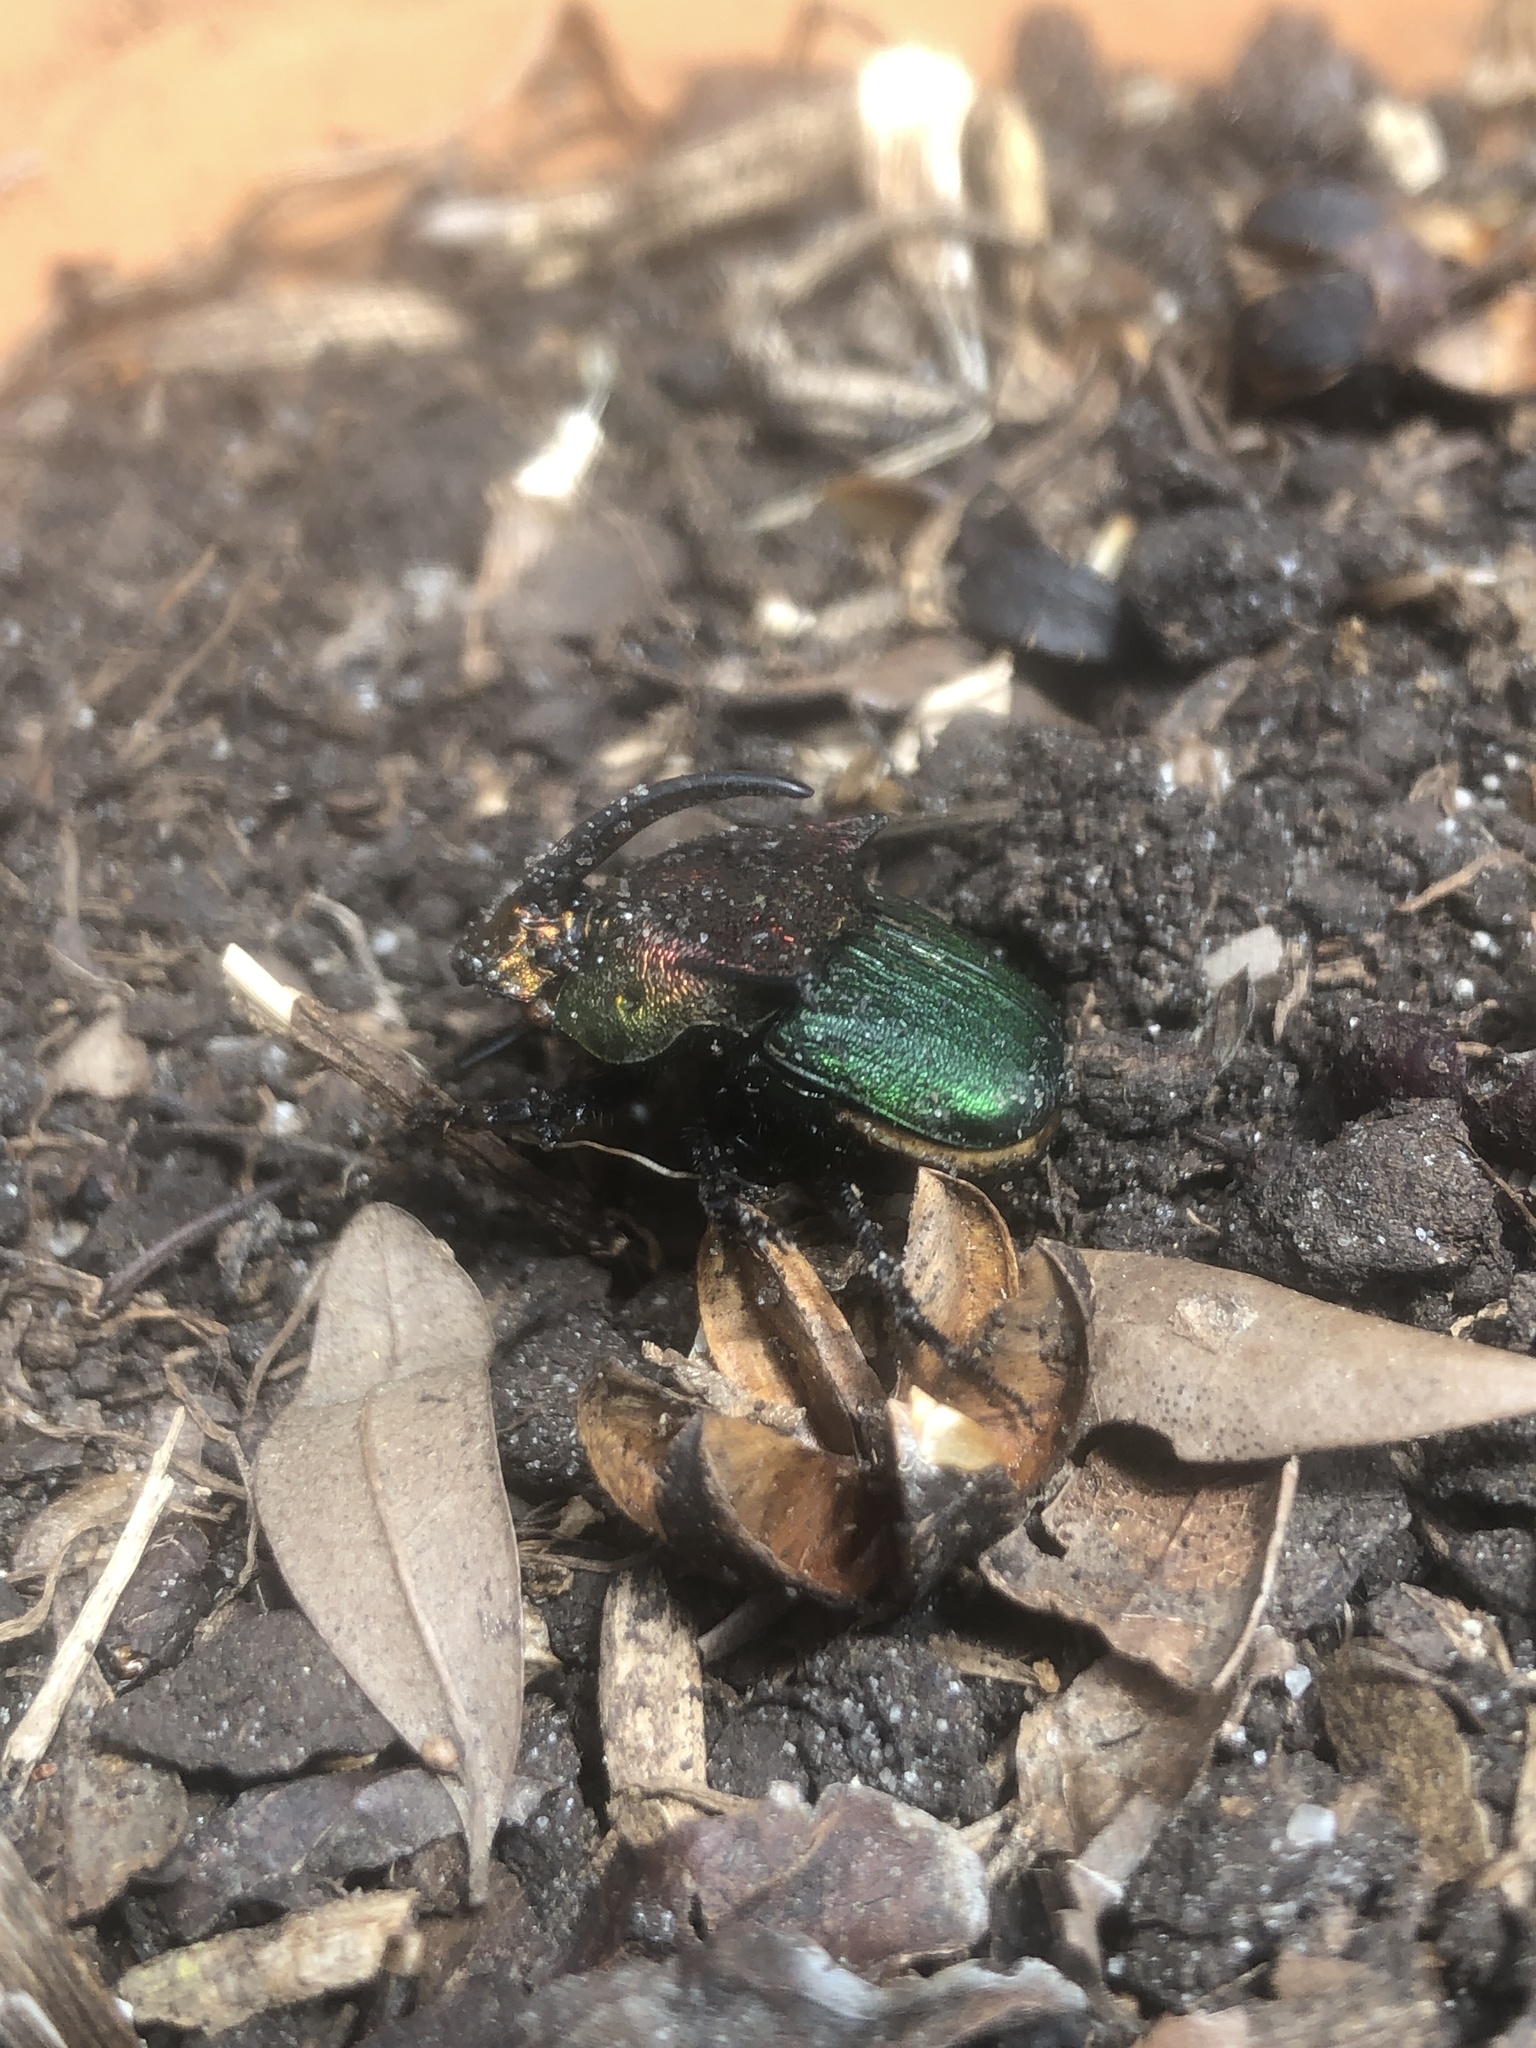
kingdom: Animalia
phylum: Arthropoda
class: Insecta
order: Coleoptera
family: Scarabaeidae
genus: Phanaeus
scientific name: Phanaeus vindex
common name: Rainbow scarab
